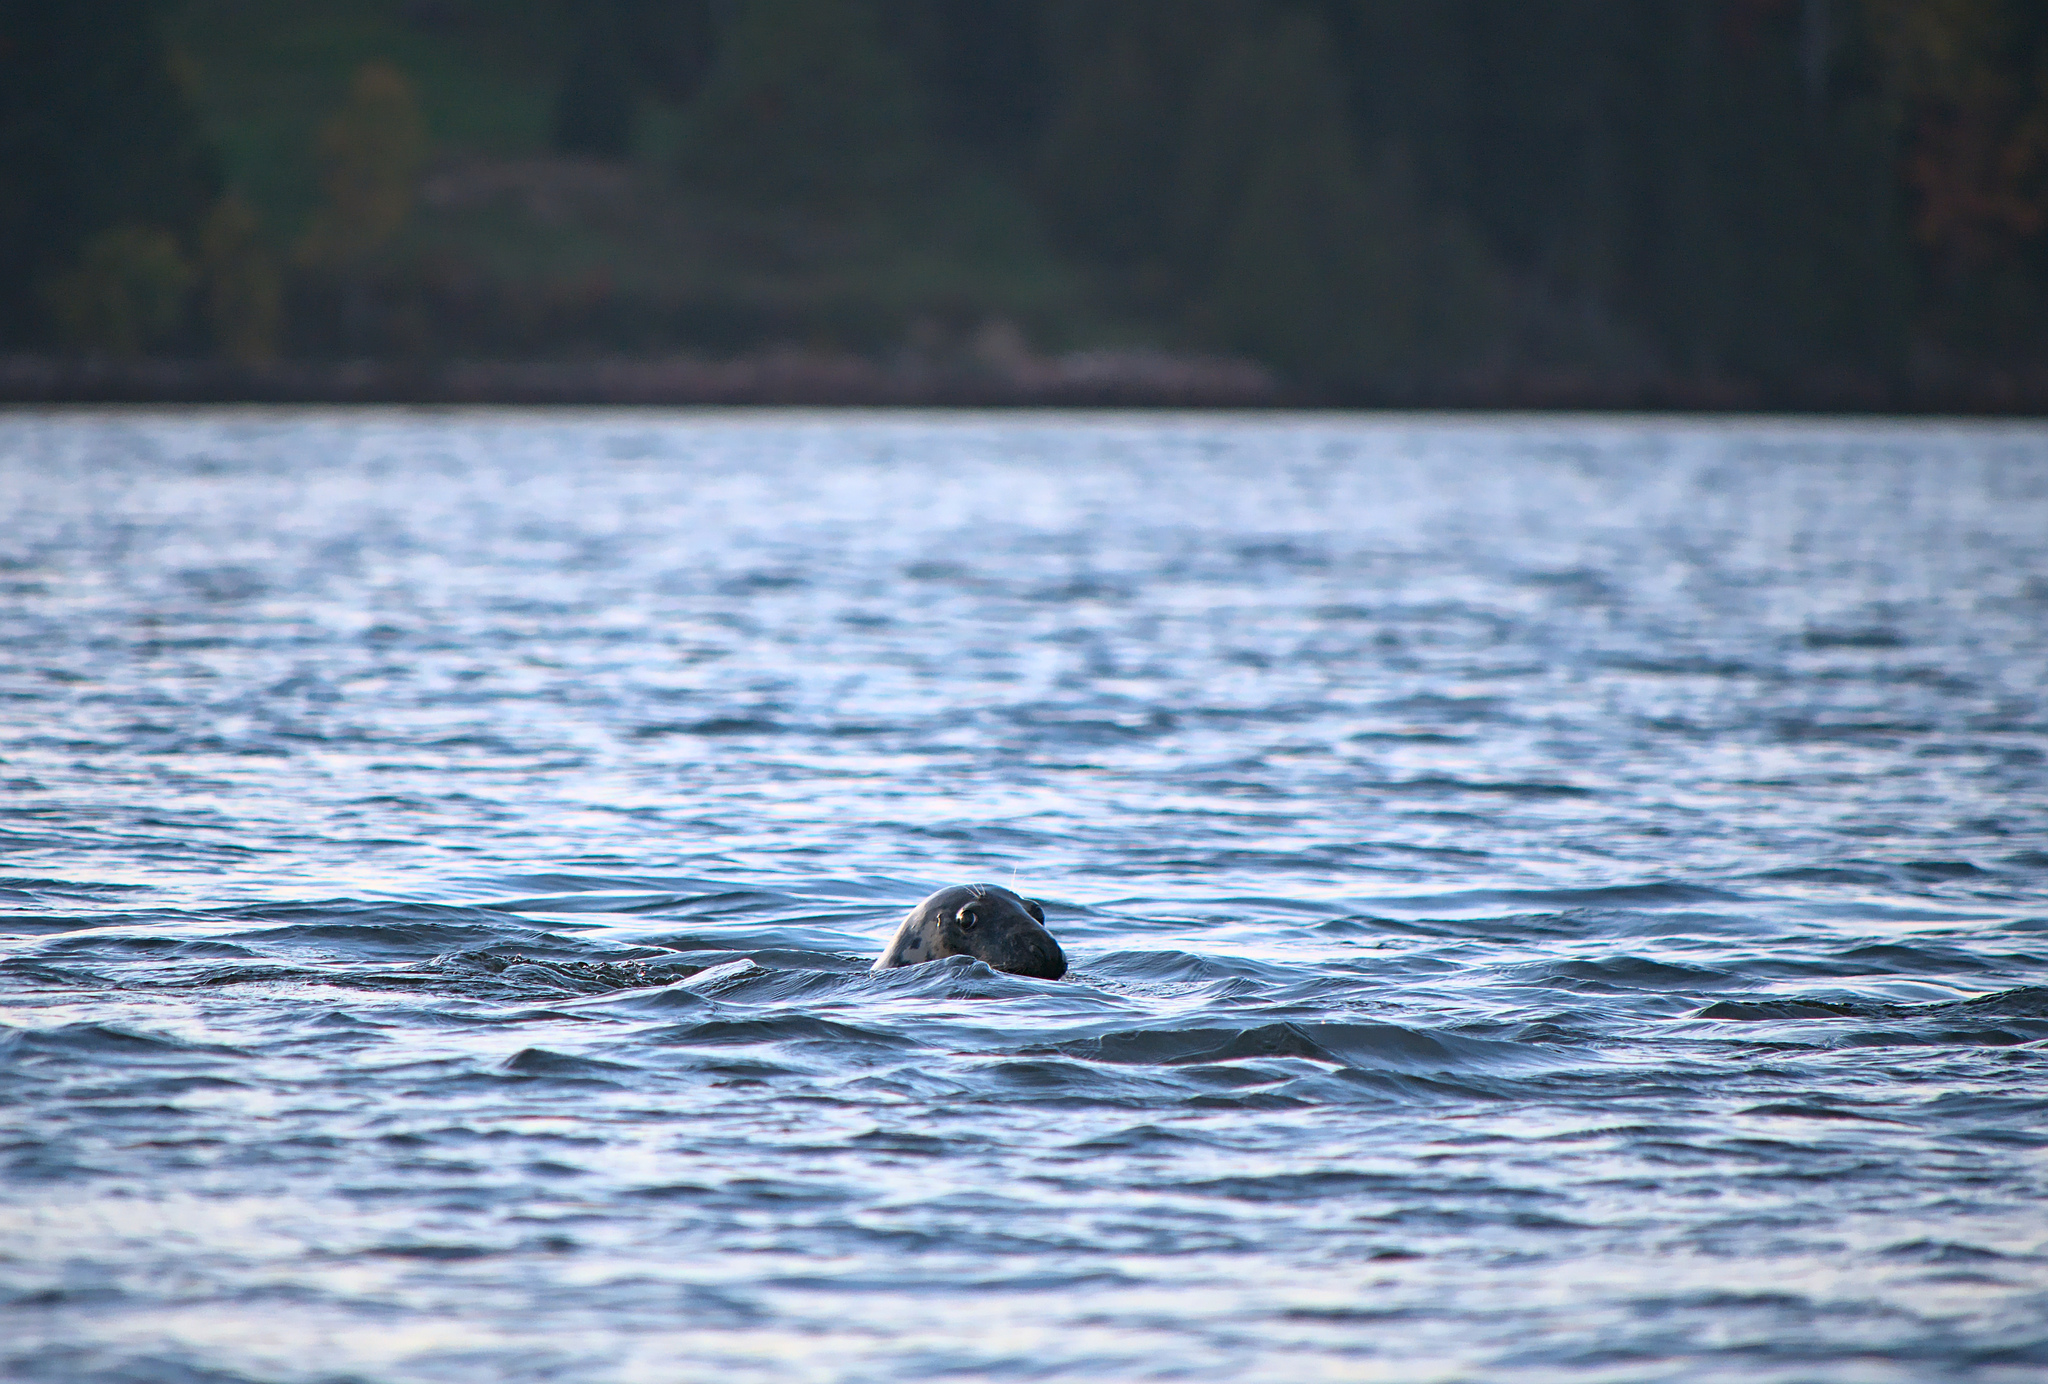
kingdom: Animalia
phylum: Chordata
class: Mammalia
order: Carnivora
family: Phocidae
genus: Halichoerus
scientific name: Halichoerus grypus
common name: Grey seal
